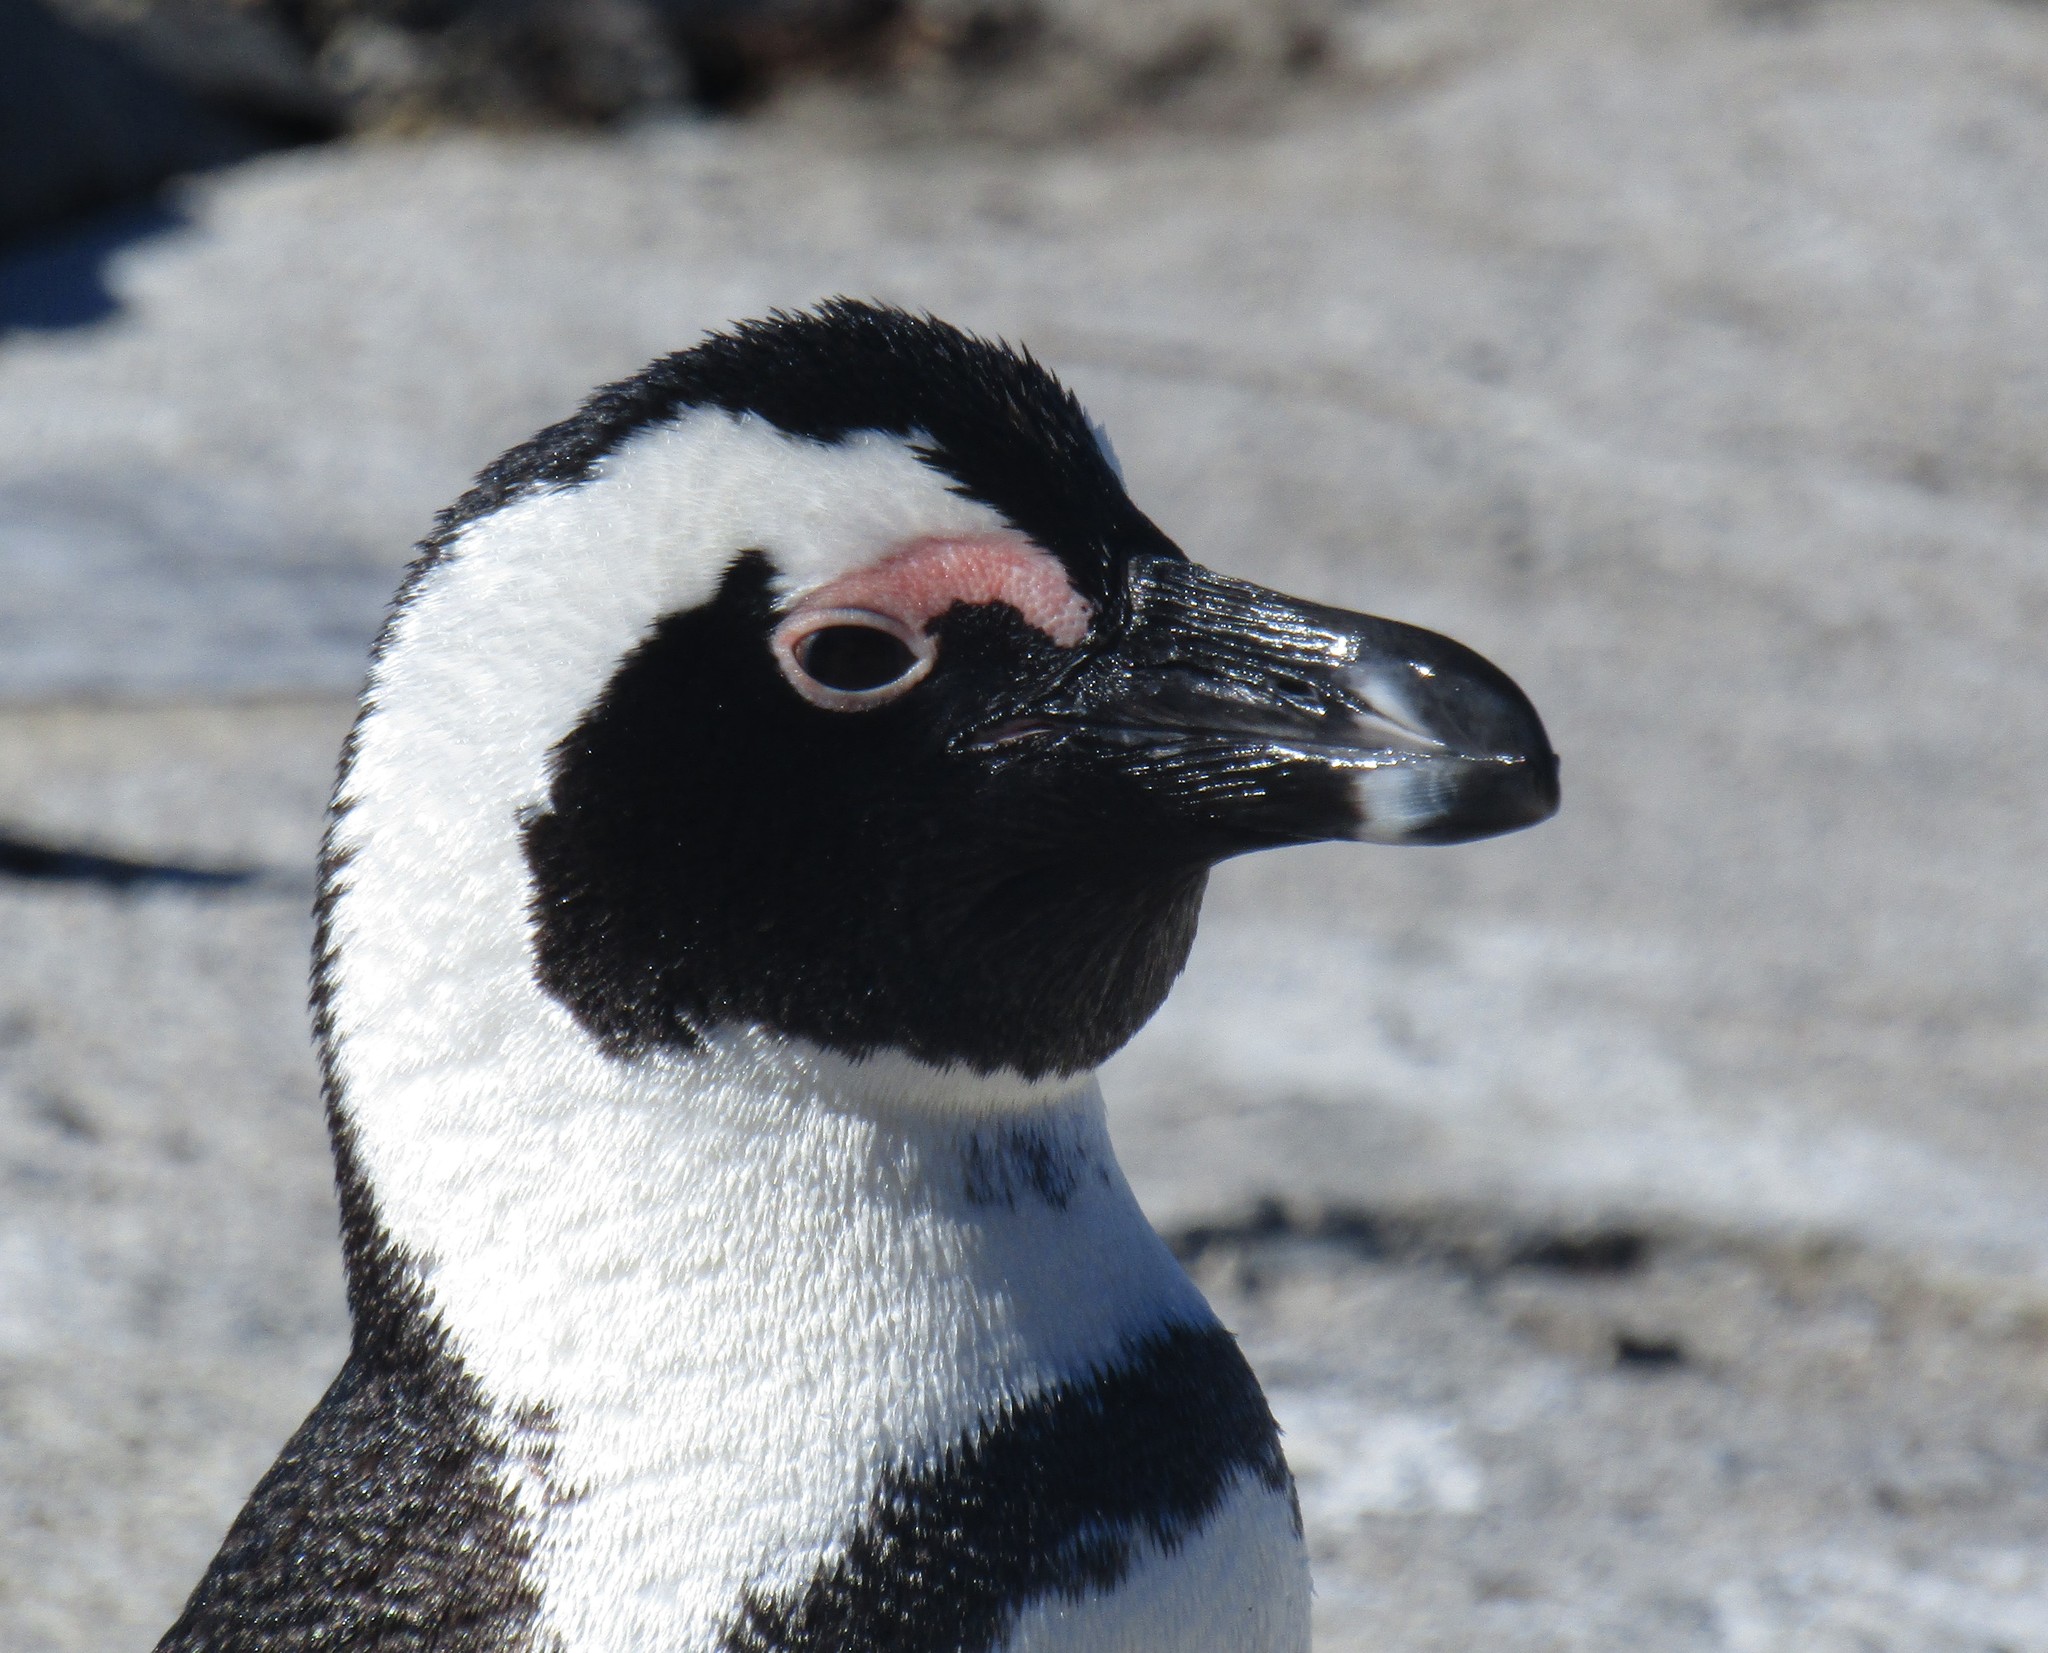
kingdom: Animalia
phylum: Chordata
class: Aves
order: Sphenisciformes
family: Spheniscidae
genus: Spheniscus
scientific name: Spheniscus demersus
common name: African penguin
